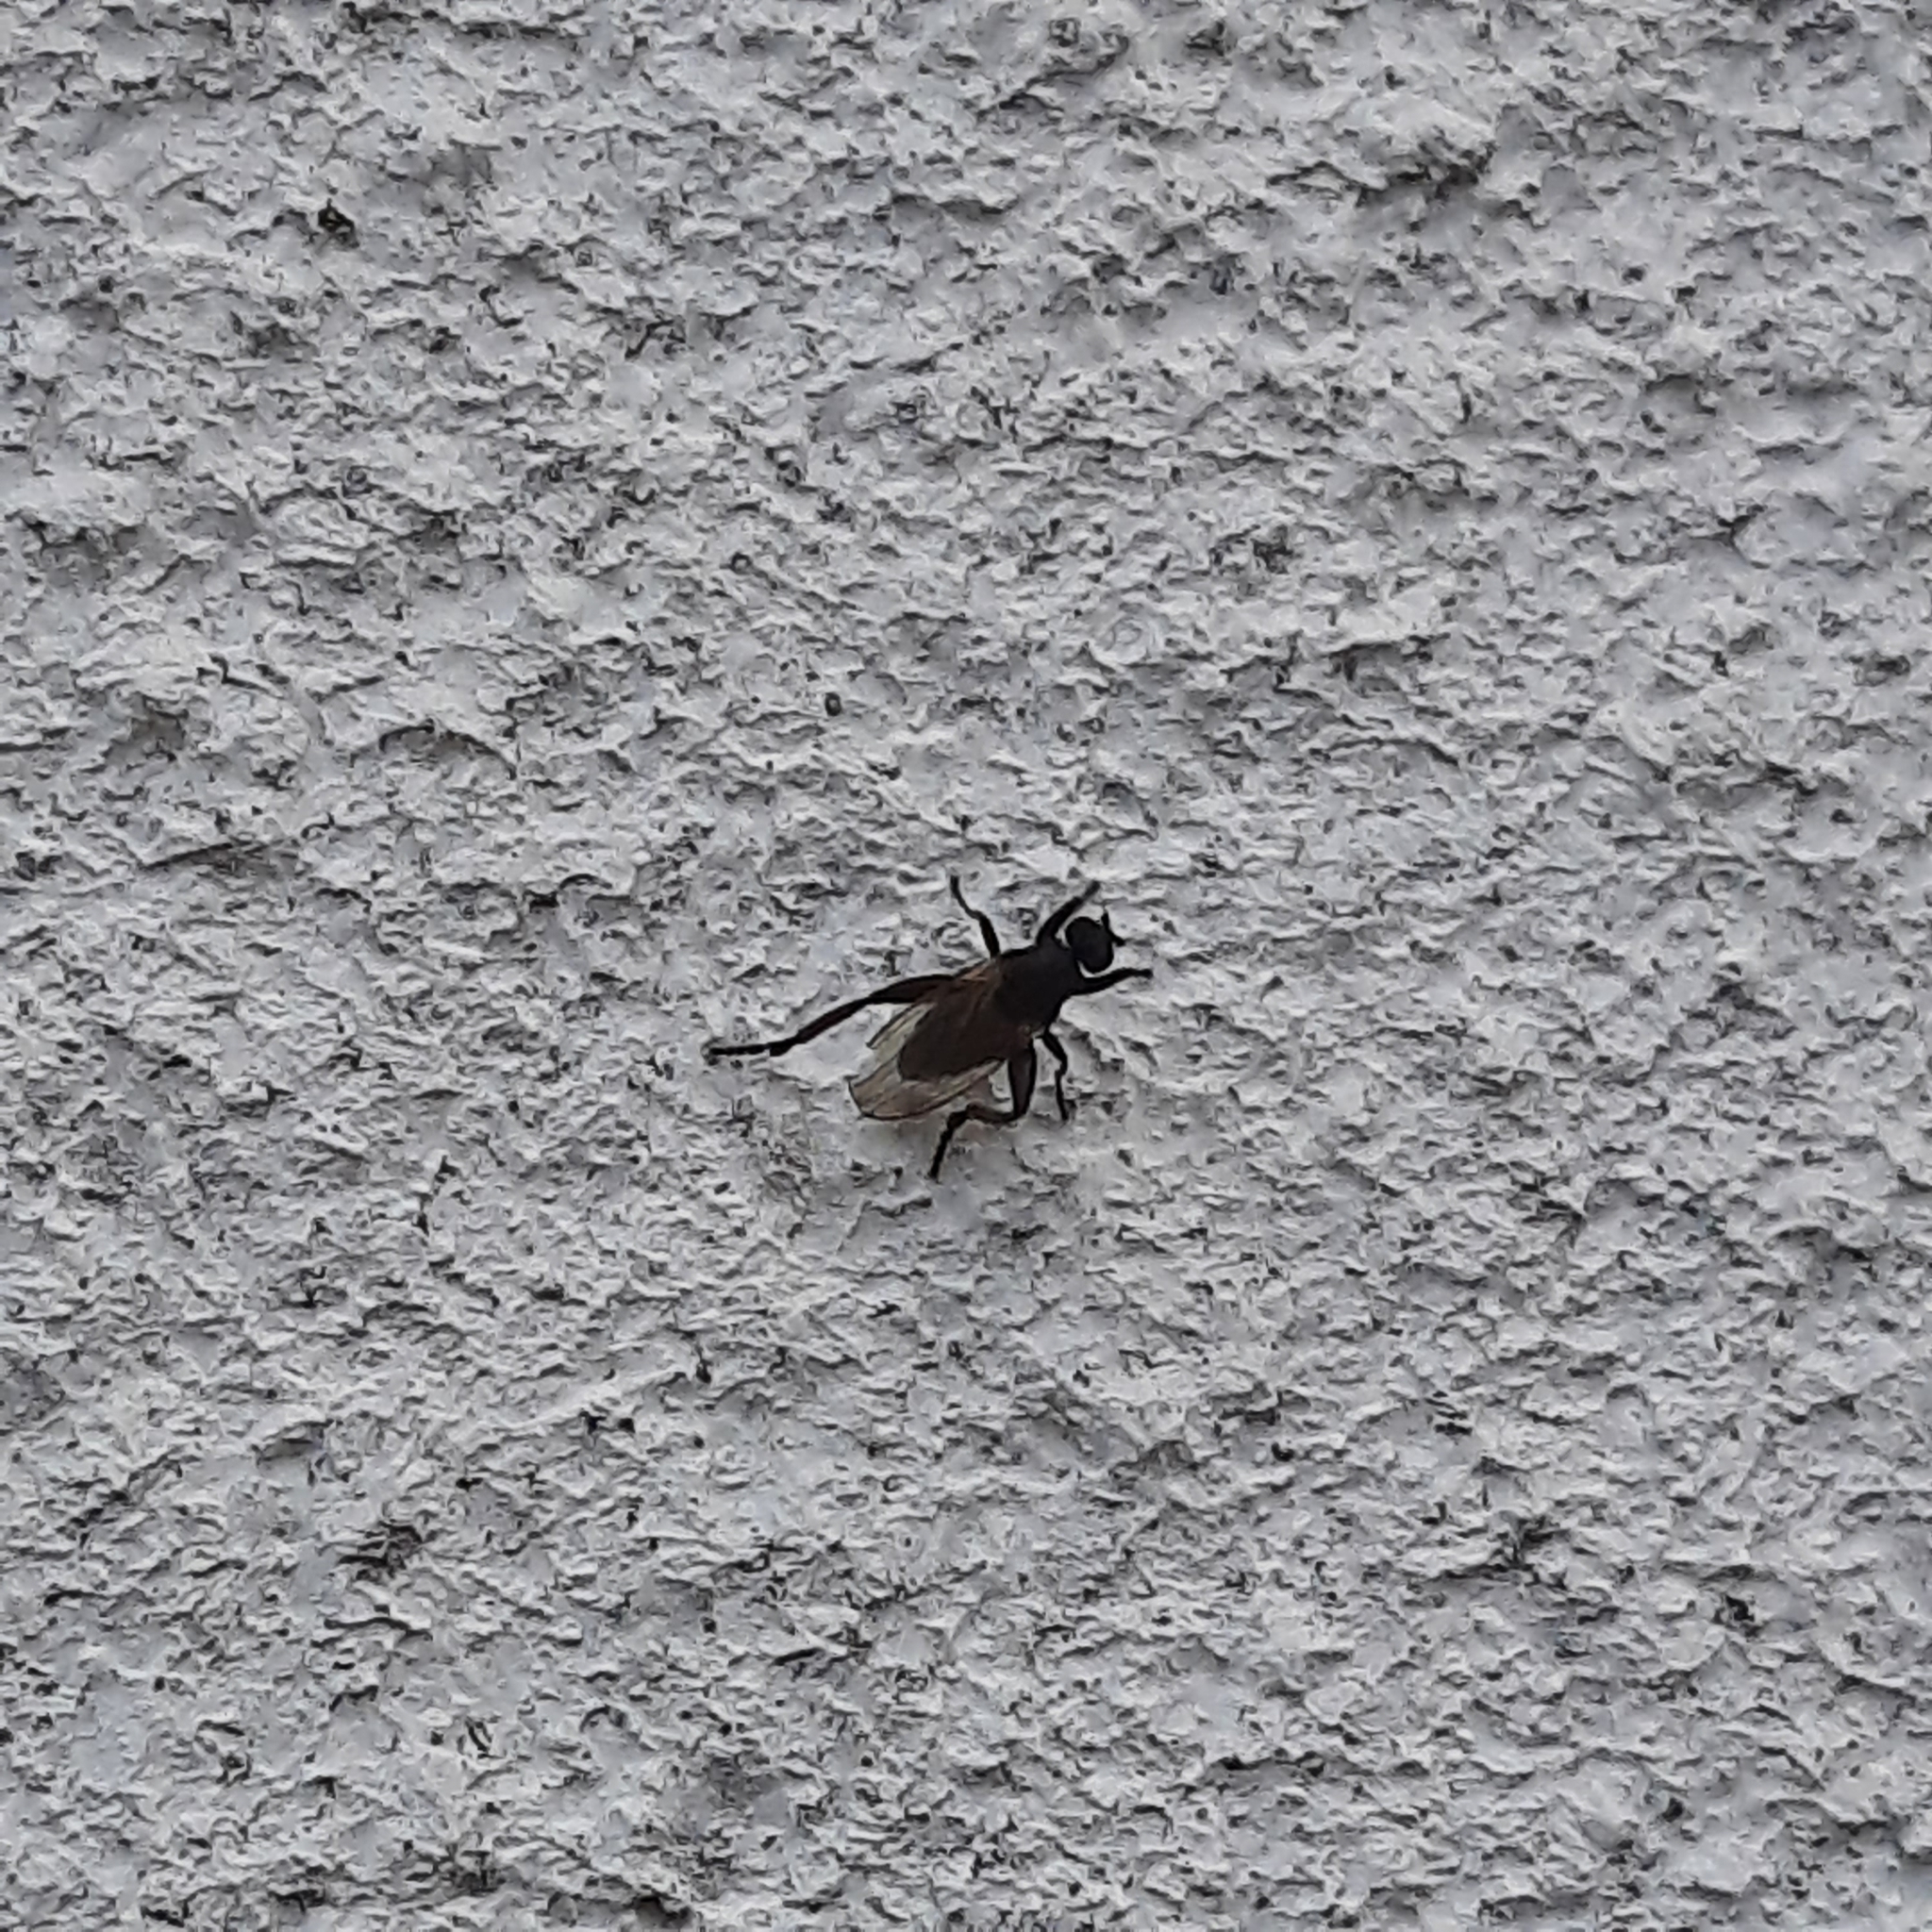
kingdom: Animalia
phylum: Arthropoda
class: Insecta
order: Diptera
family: Sphaeroceridae
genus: Sphaerocera
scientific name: Sphaerocera curvipes
